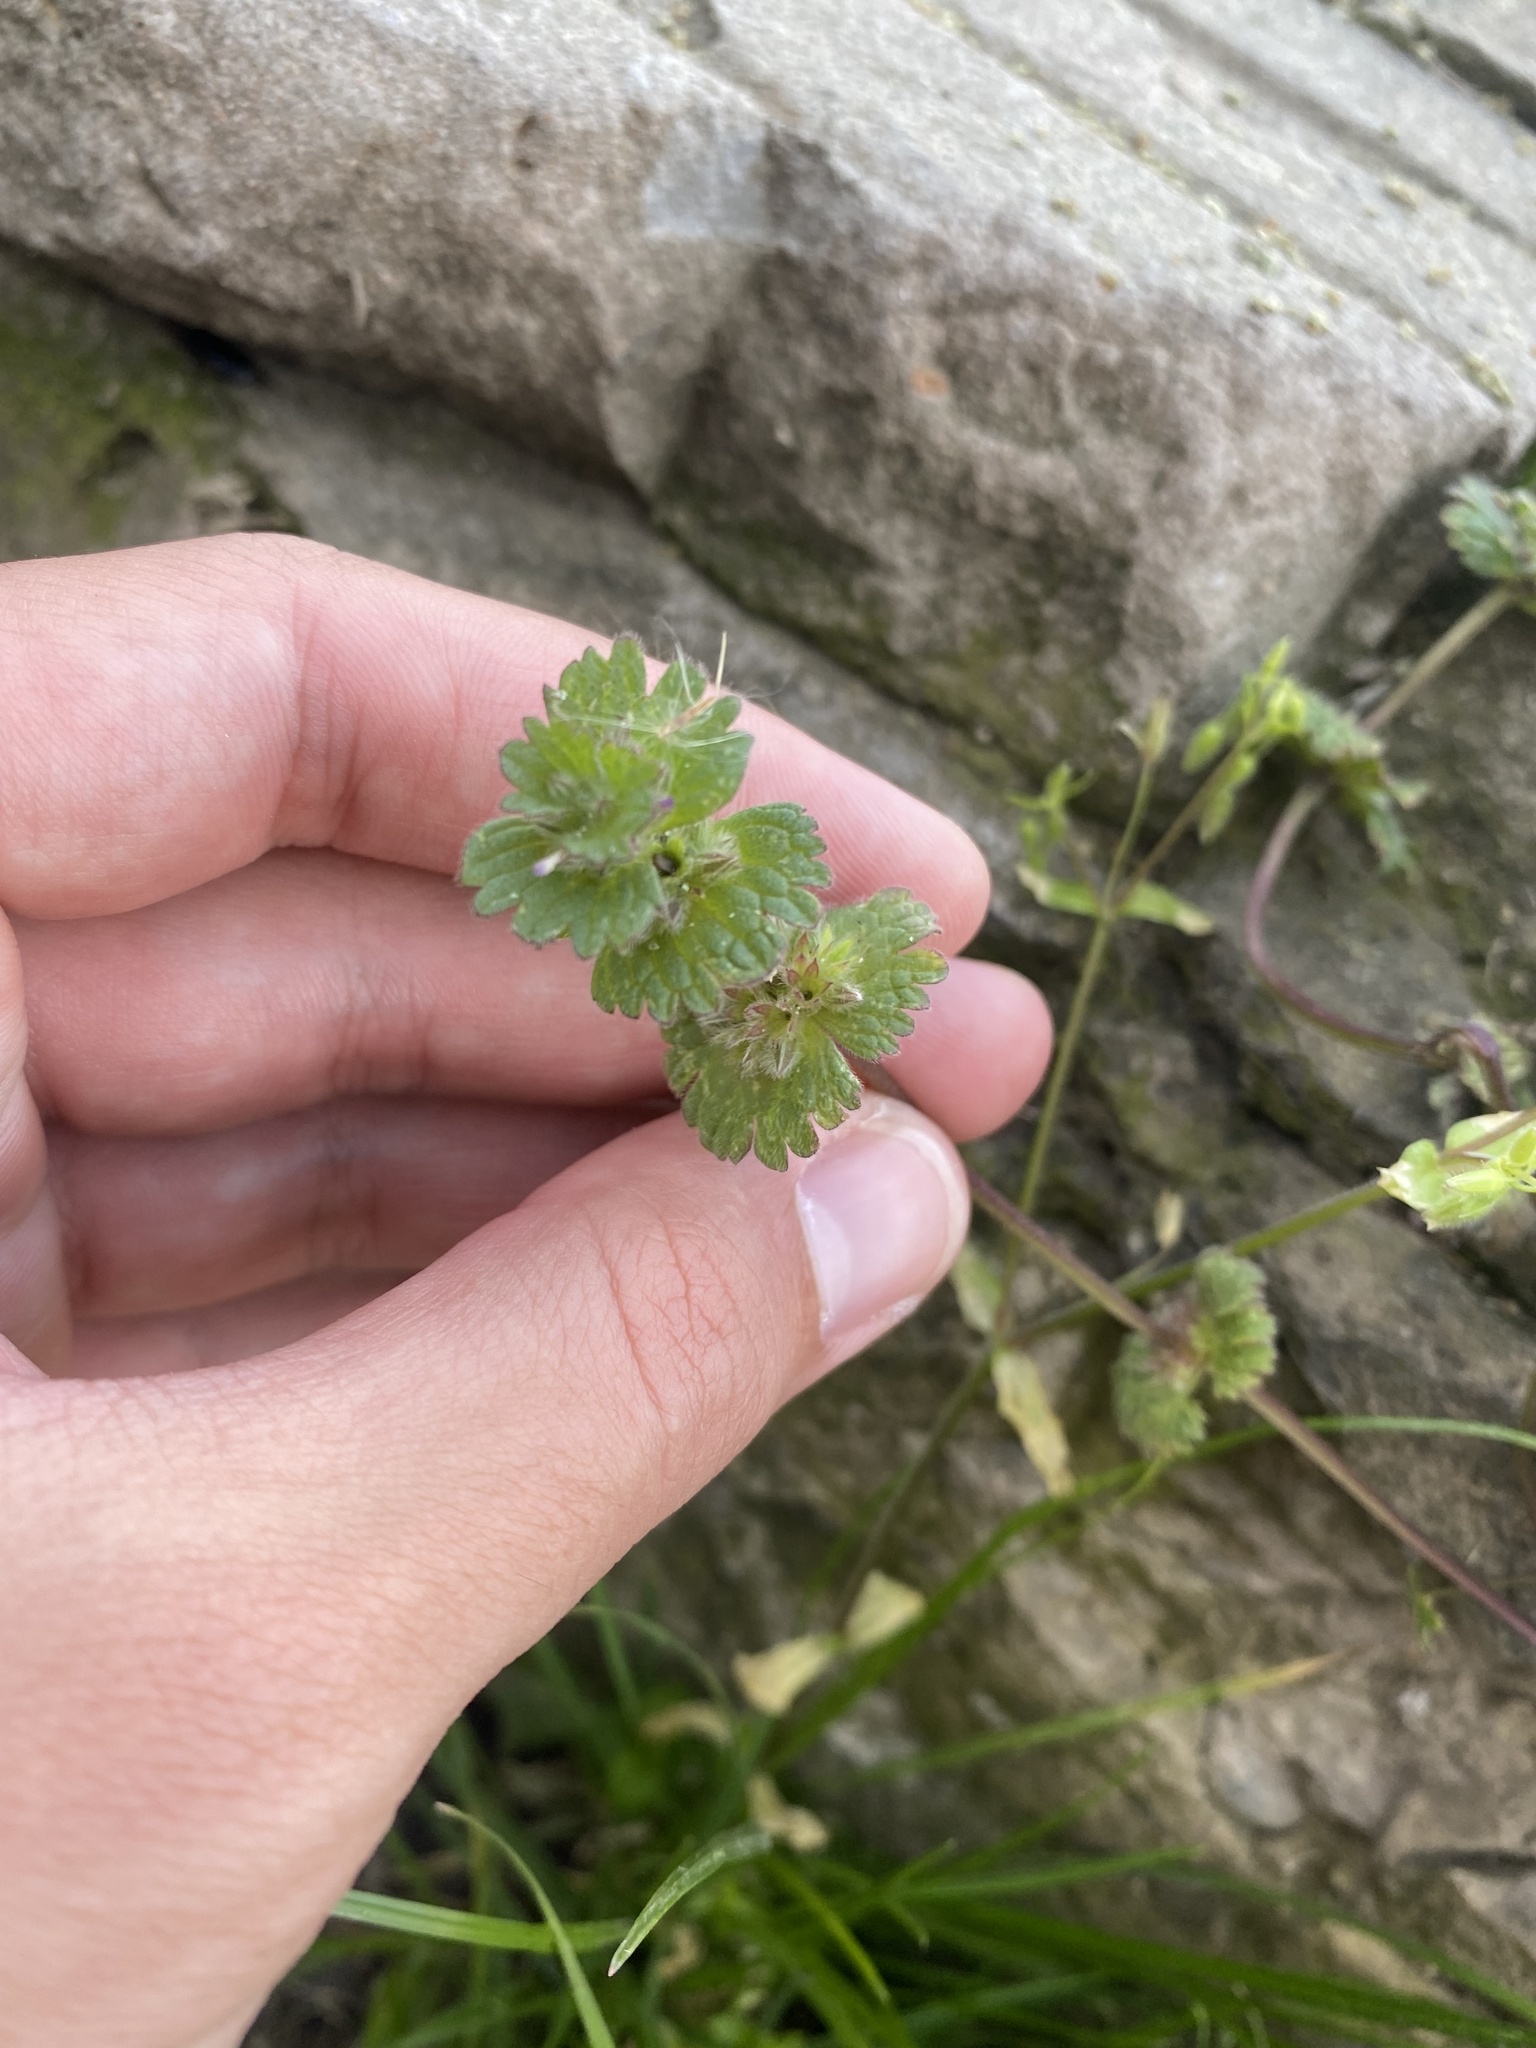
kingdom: Plantae
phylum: Tracheophyta
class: Magnoliopsida
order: Lamiales
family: Lamiaceae
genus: Lamium
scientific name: Lamium amplexicaule
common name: Henbit dead-nettle
